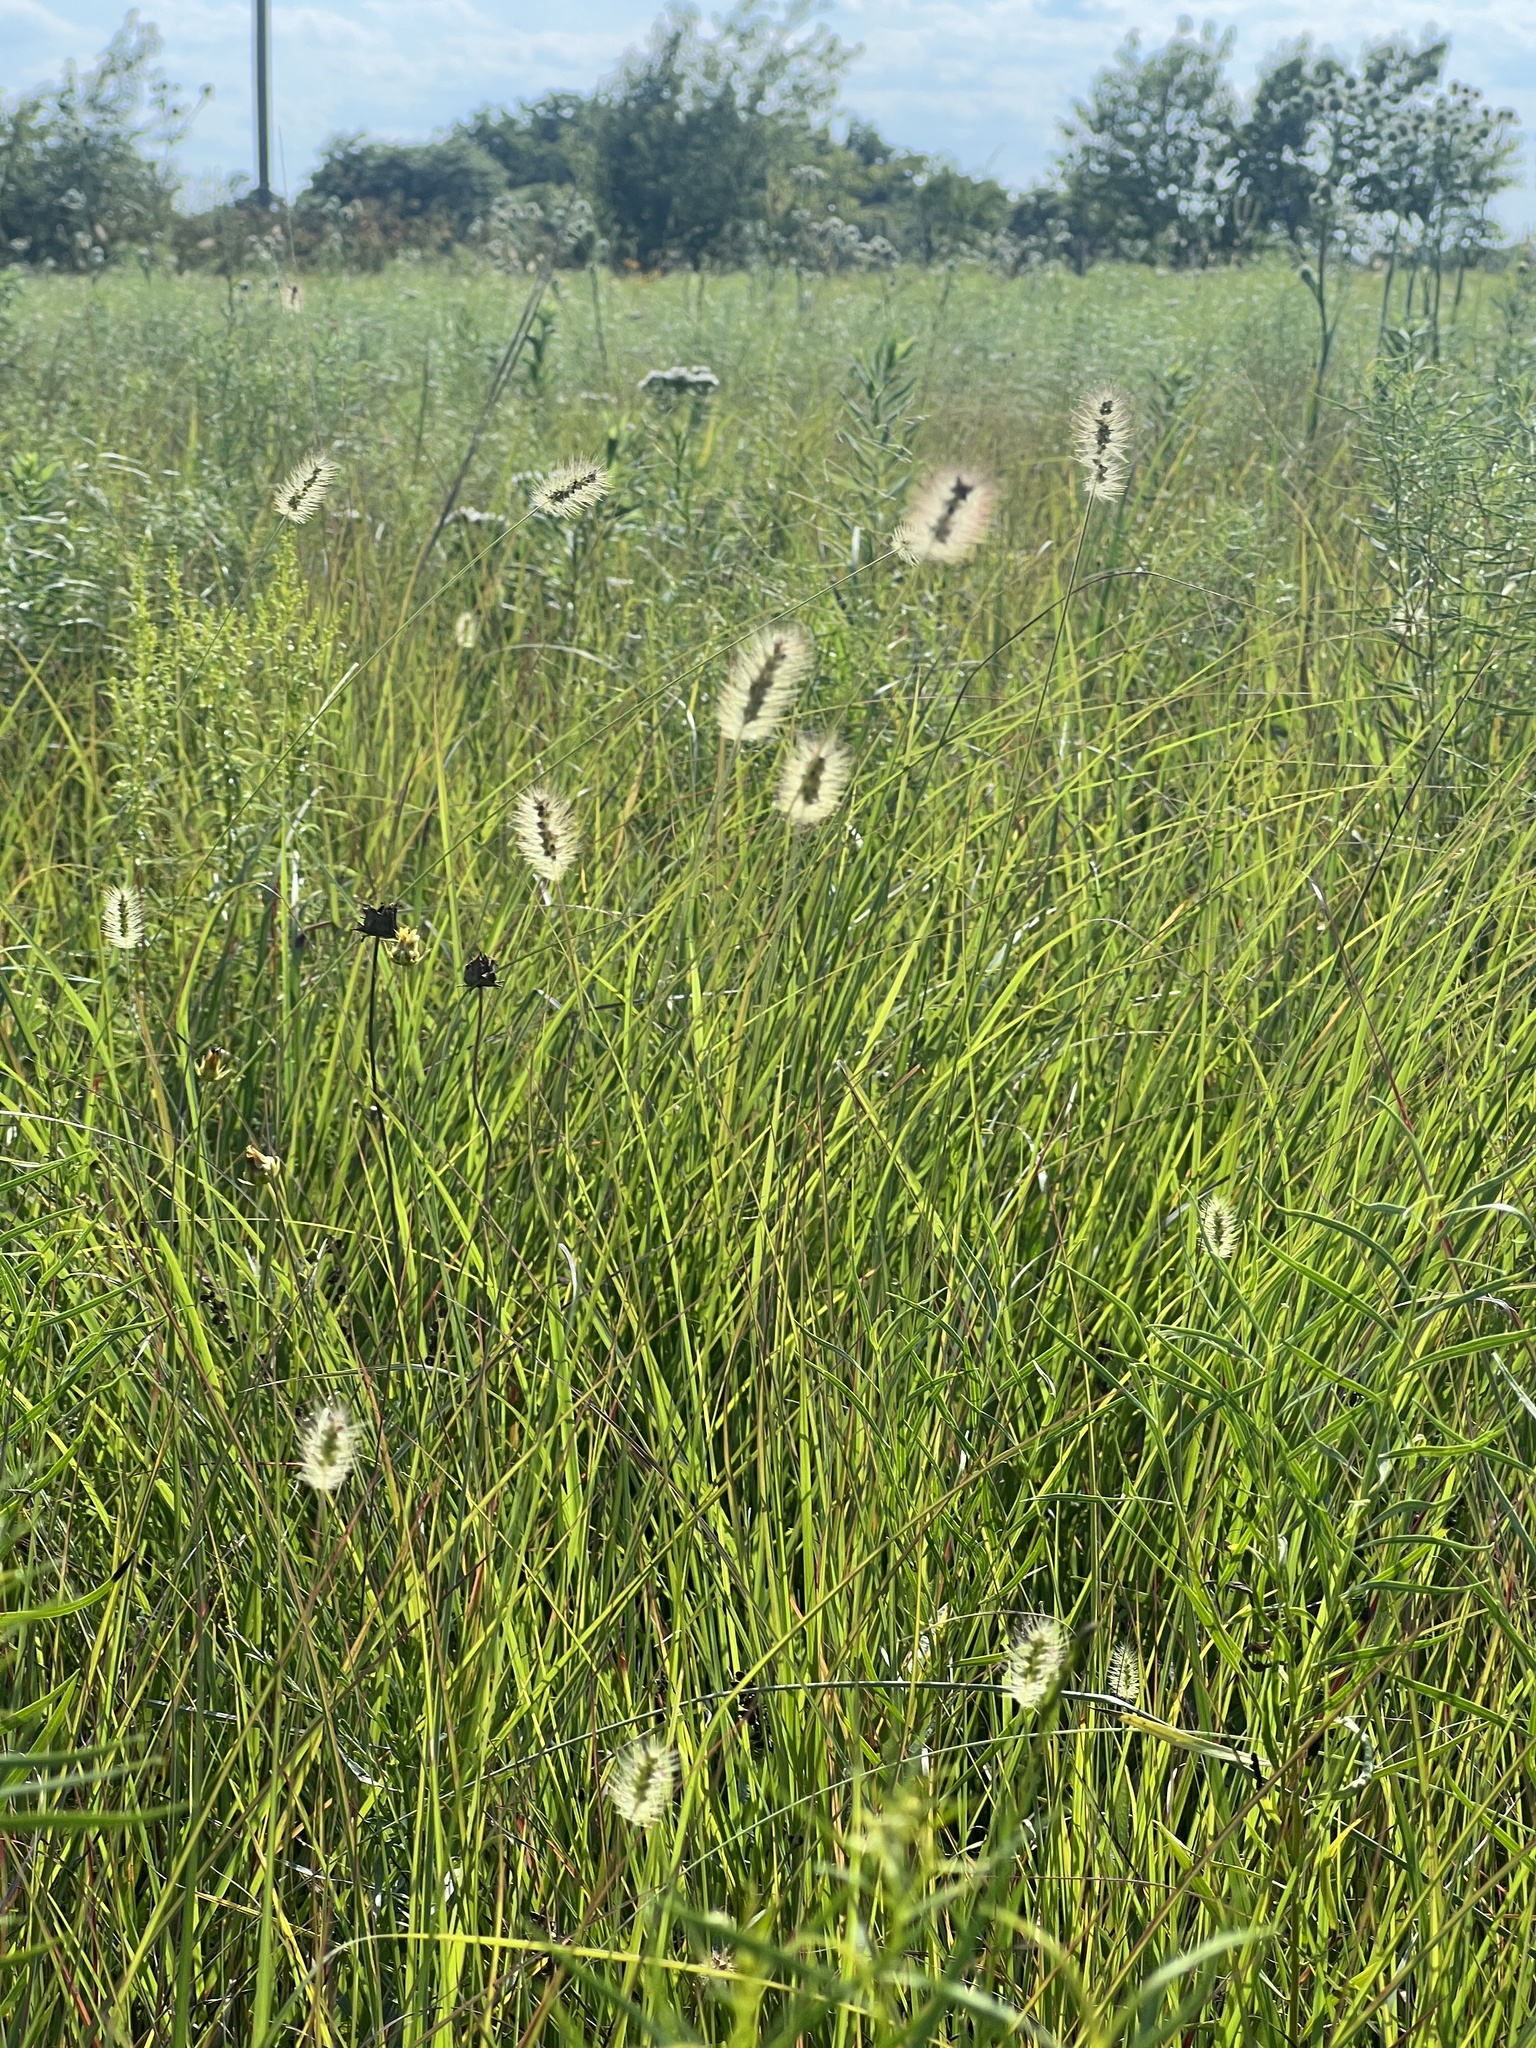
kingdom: Plantae
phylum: Tracheophyta
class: Liliopsida
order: Poales
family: Poaceae
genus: Setaria
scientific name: Setaria parviflora
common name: Knotroot bristle-grass
